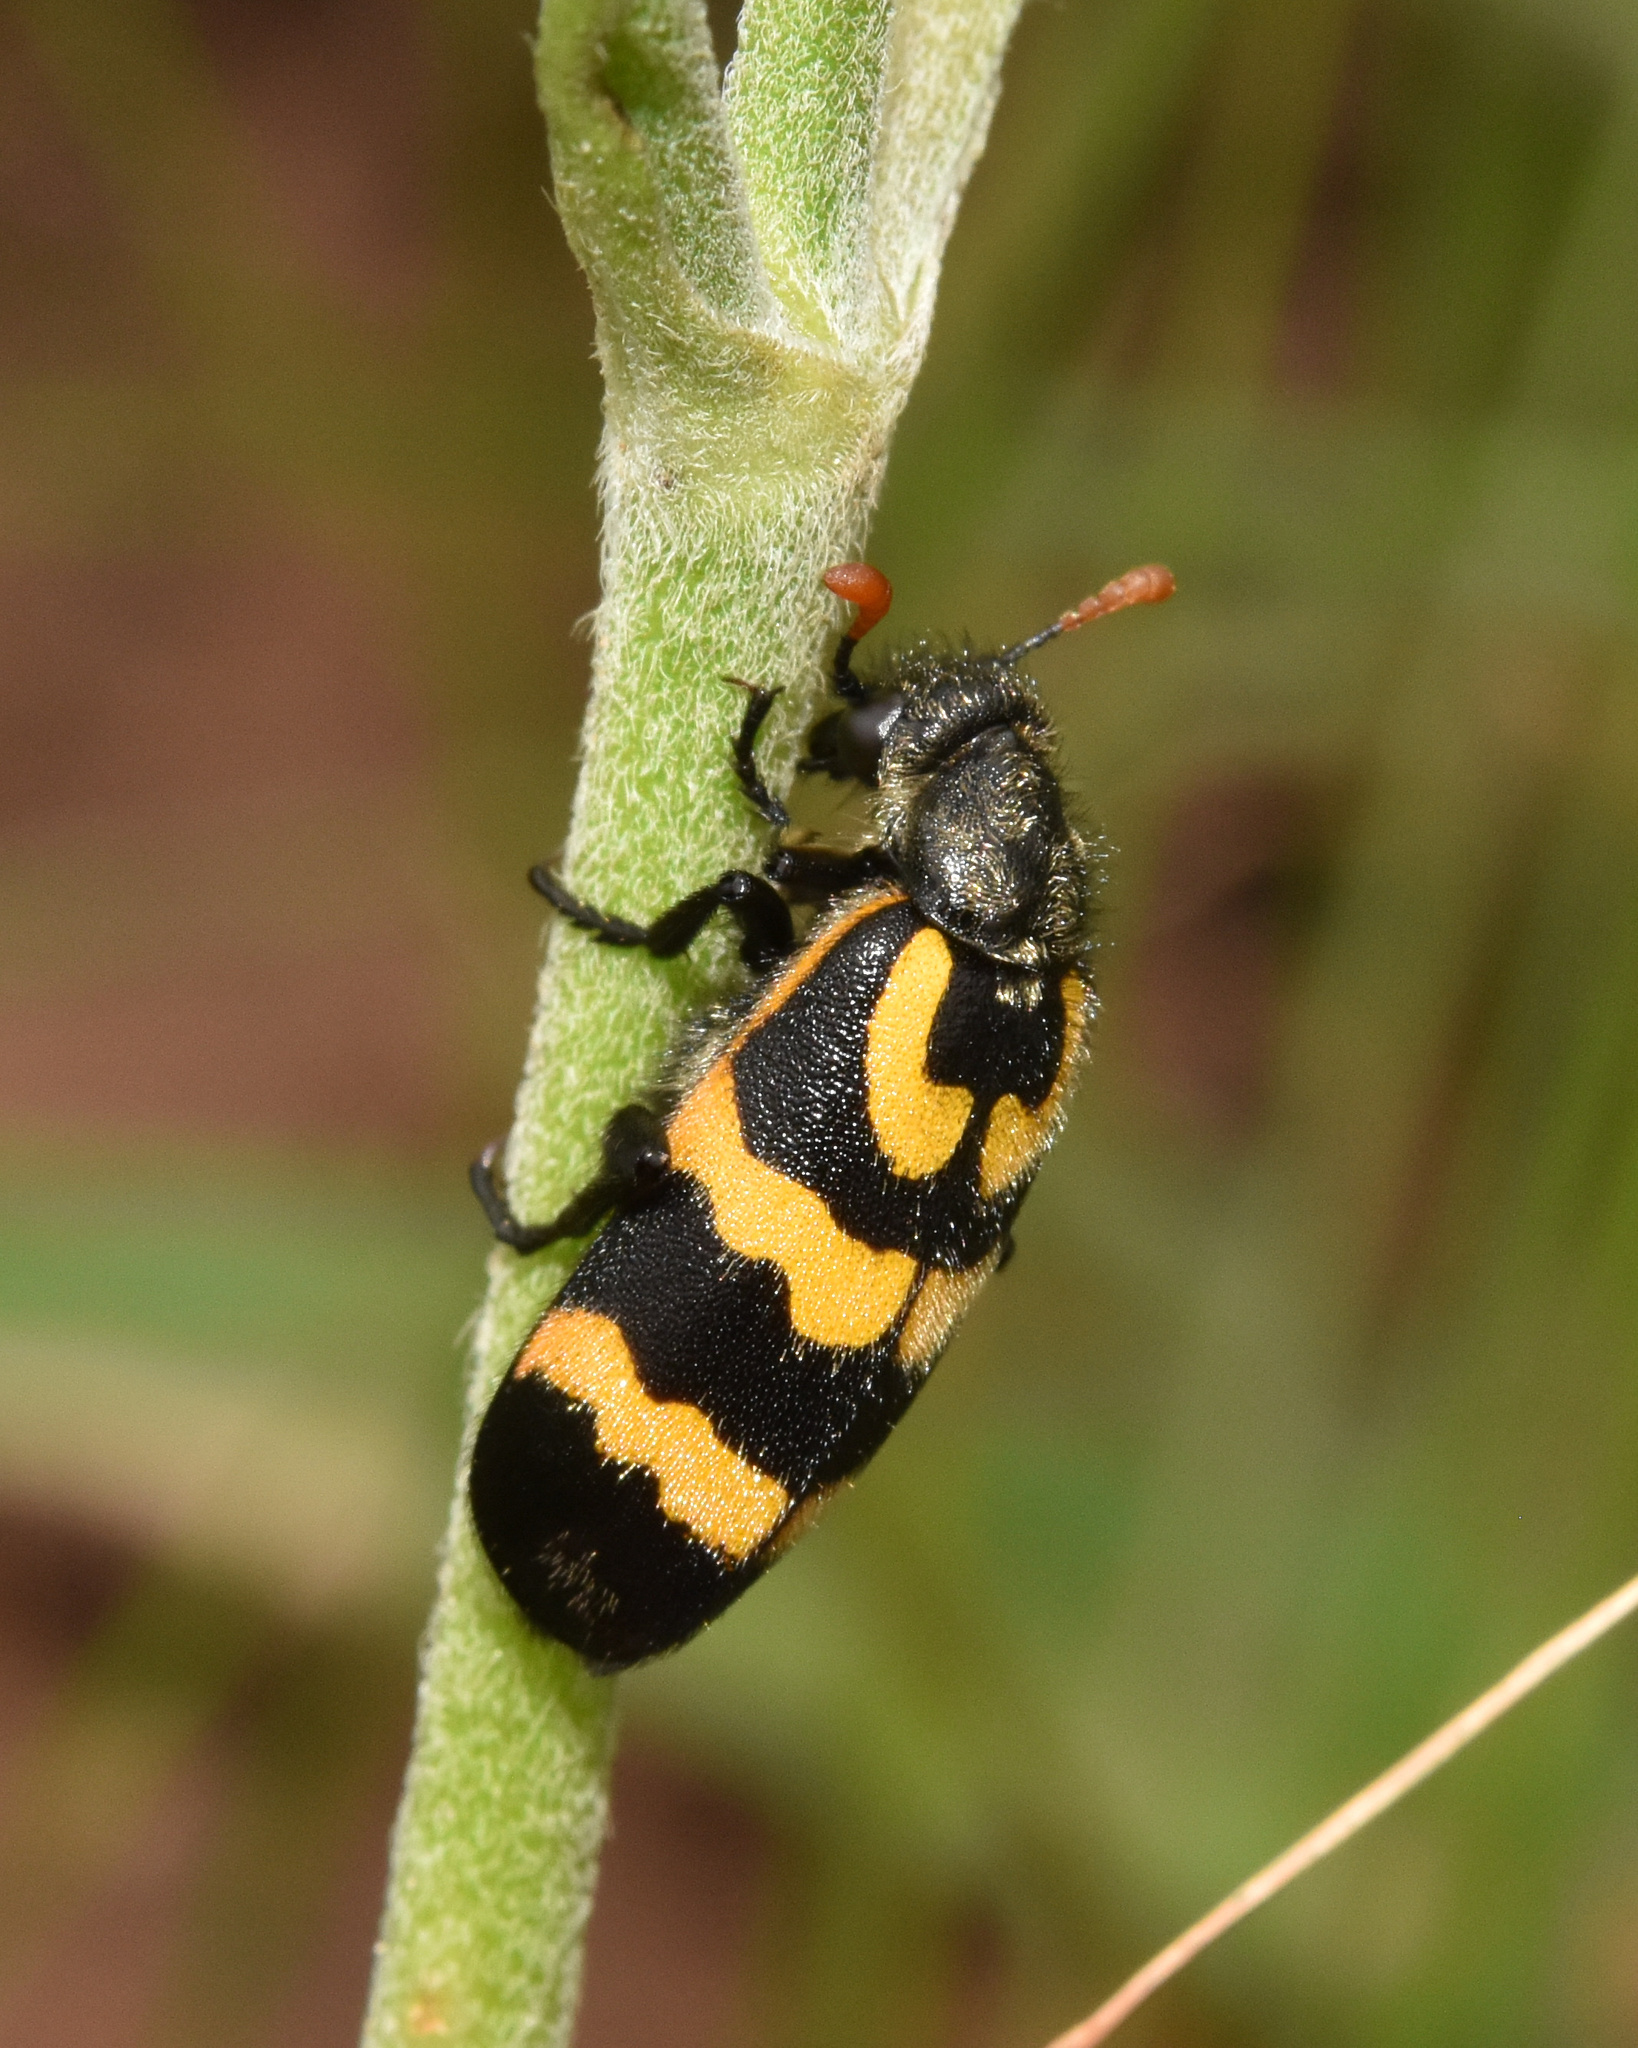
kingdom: Animalia
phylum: Arthropoda
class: Insecta
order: Coleoptera
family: Meloidae
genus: Meloe
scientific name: Meloe lunata
